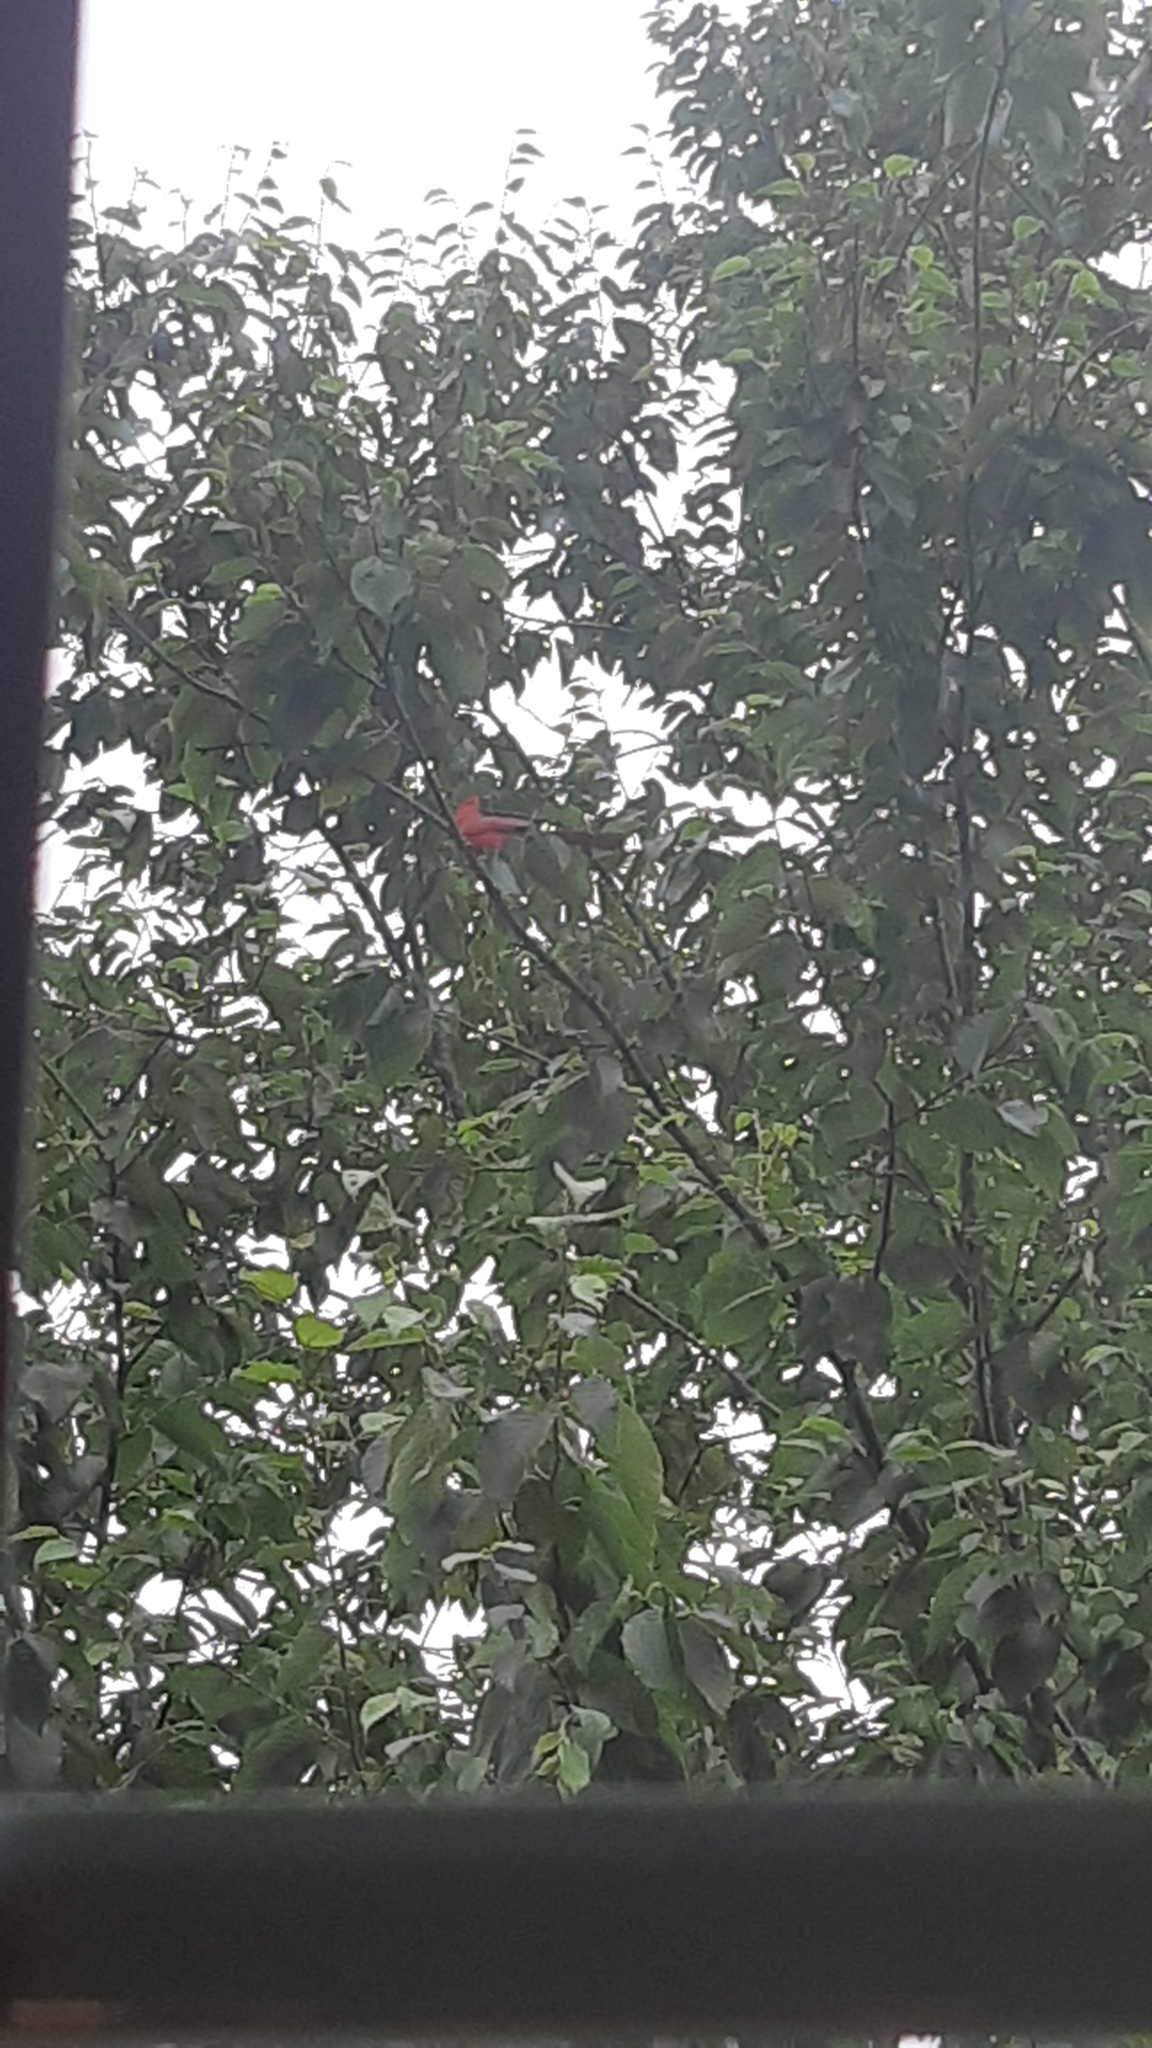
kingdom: Animalia
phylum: Chordata
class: Aves
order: Passeriformes
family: Cardinalidae
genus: Cardinalis
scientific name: Cardinalis cardinalis
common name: Northern cardinal
